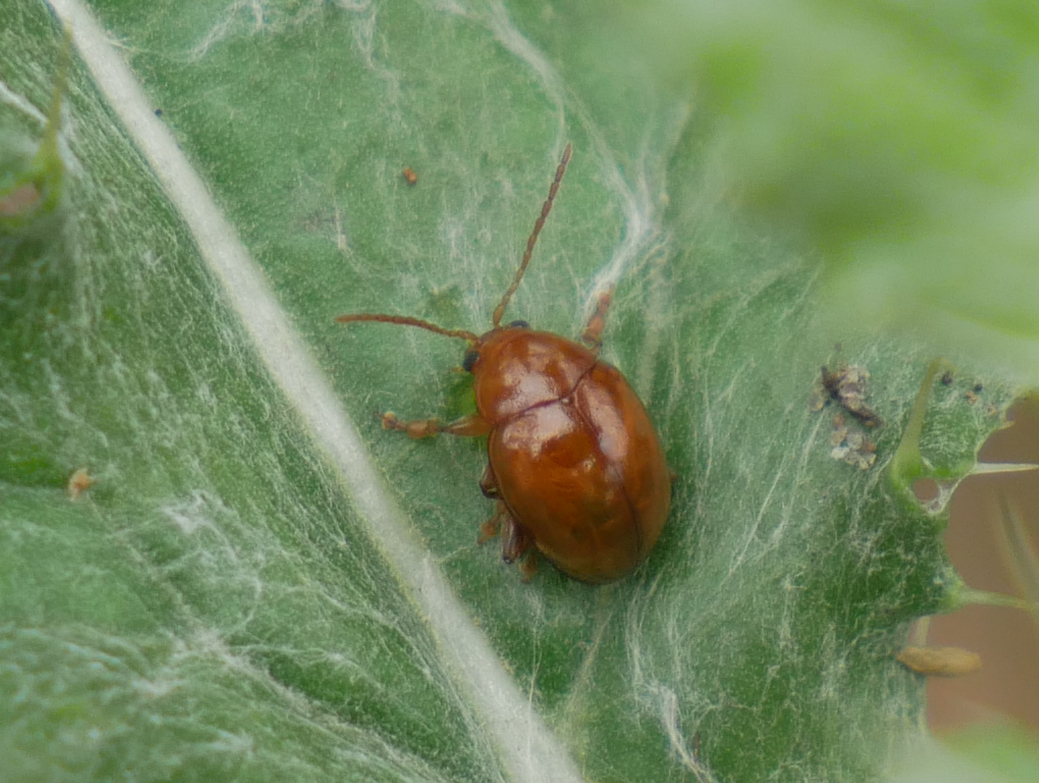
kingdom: Animalia
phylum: Arthropoda
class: Insecta
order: Coleoptera
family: Chrysomelidae
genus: Pistosia
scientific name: Pistosia testacea
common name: Leaf beetle
